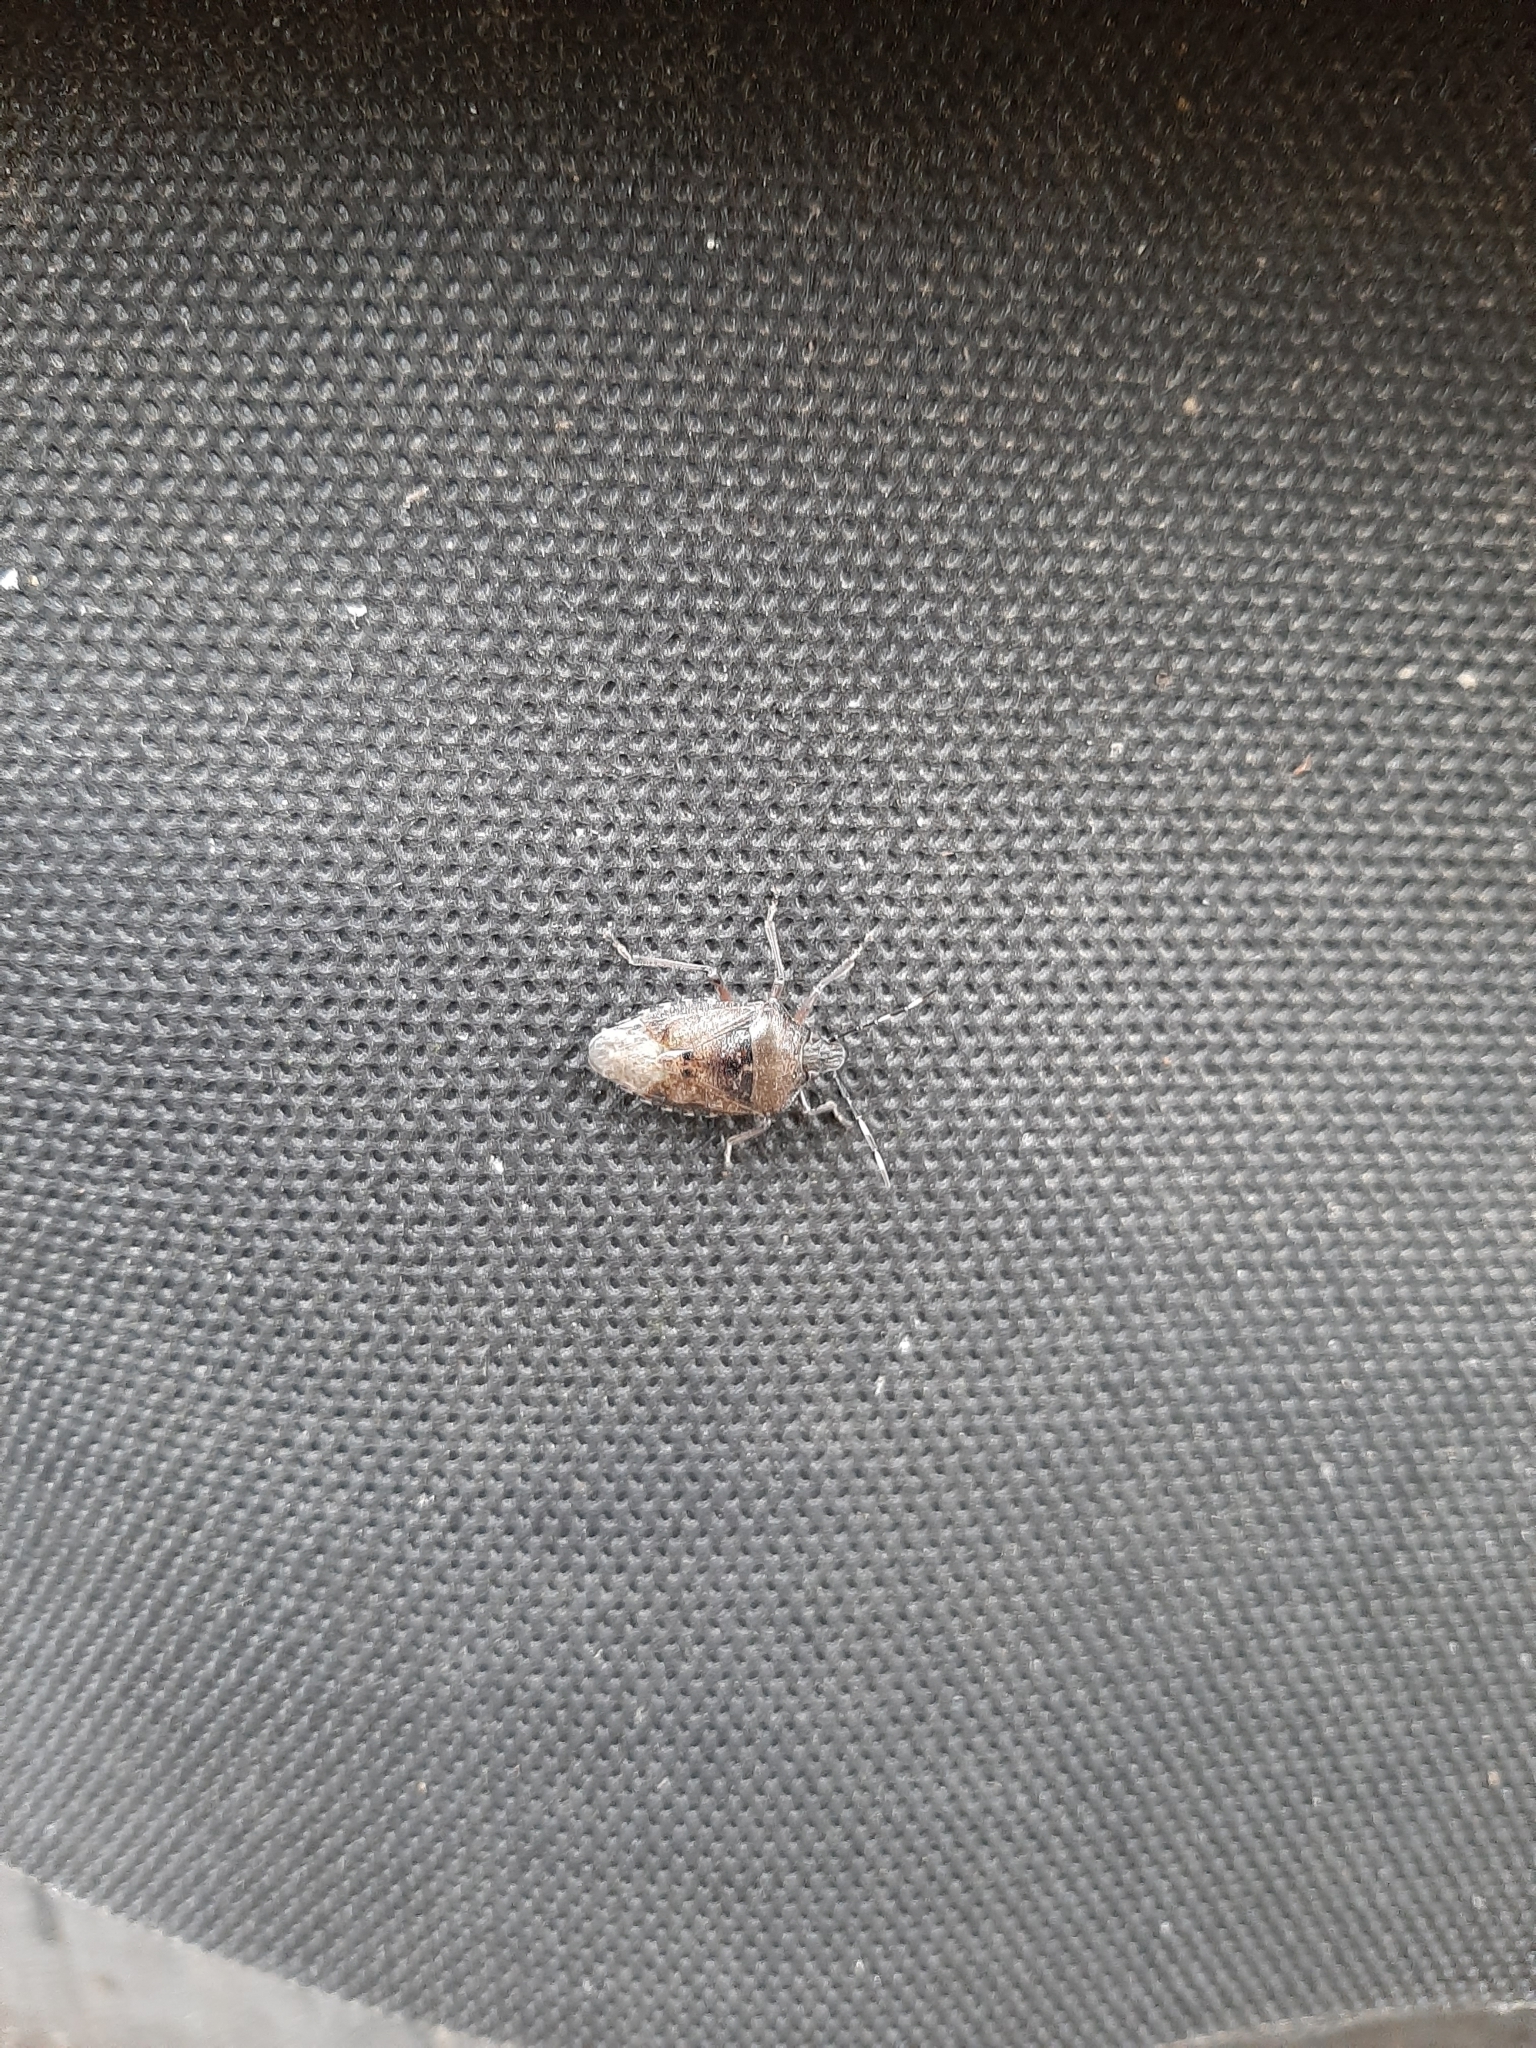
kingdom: Animalia
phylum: Arthropoda
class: Insecta
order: Hemiptera
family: Pentatomidae
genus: Rhaphigaster
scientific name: Rhaphigaster nebulosa
